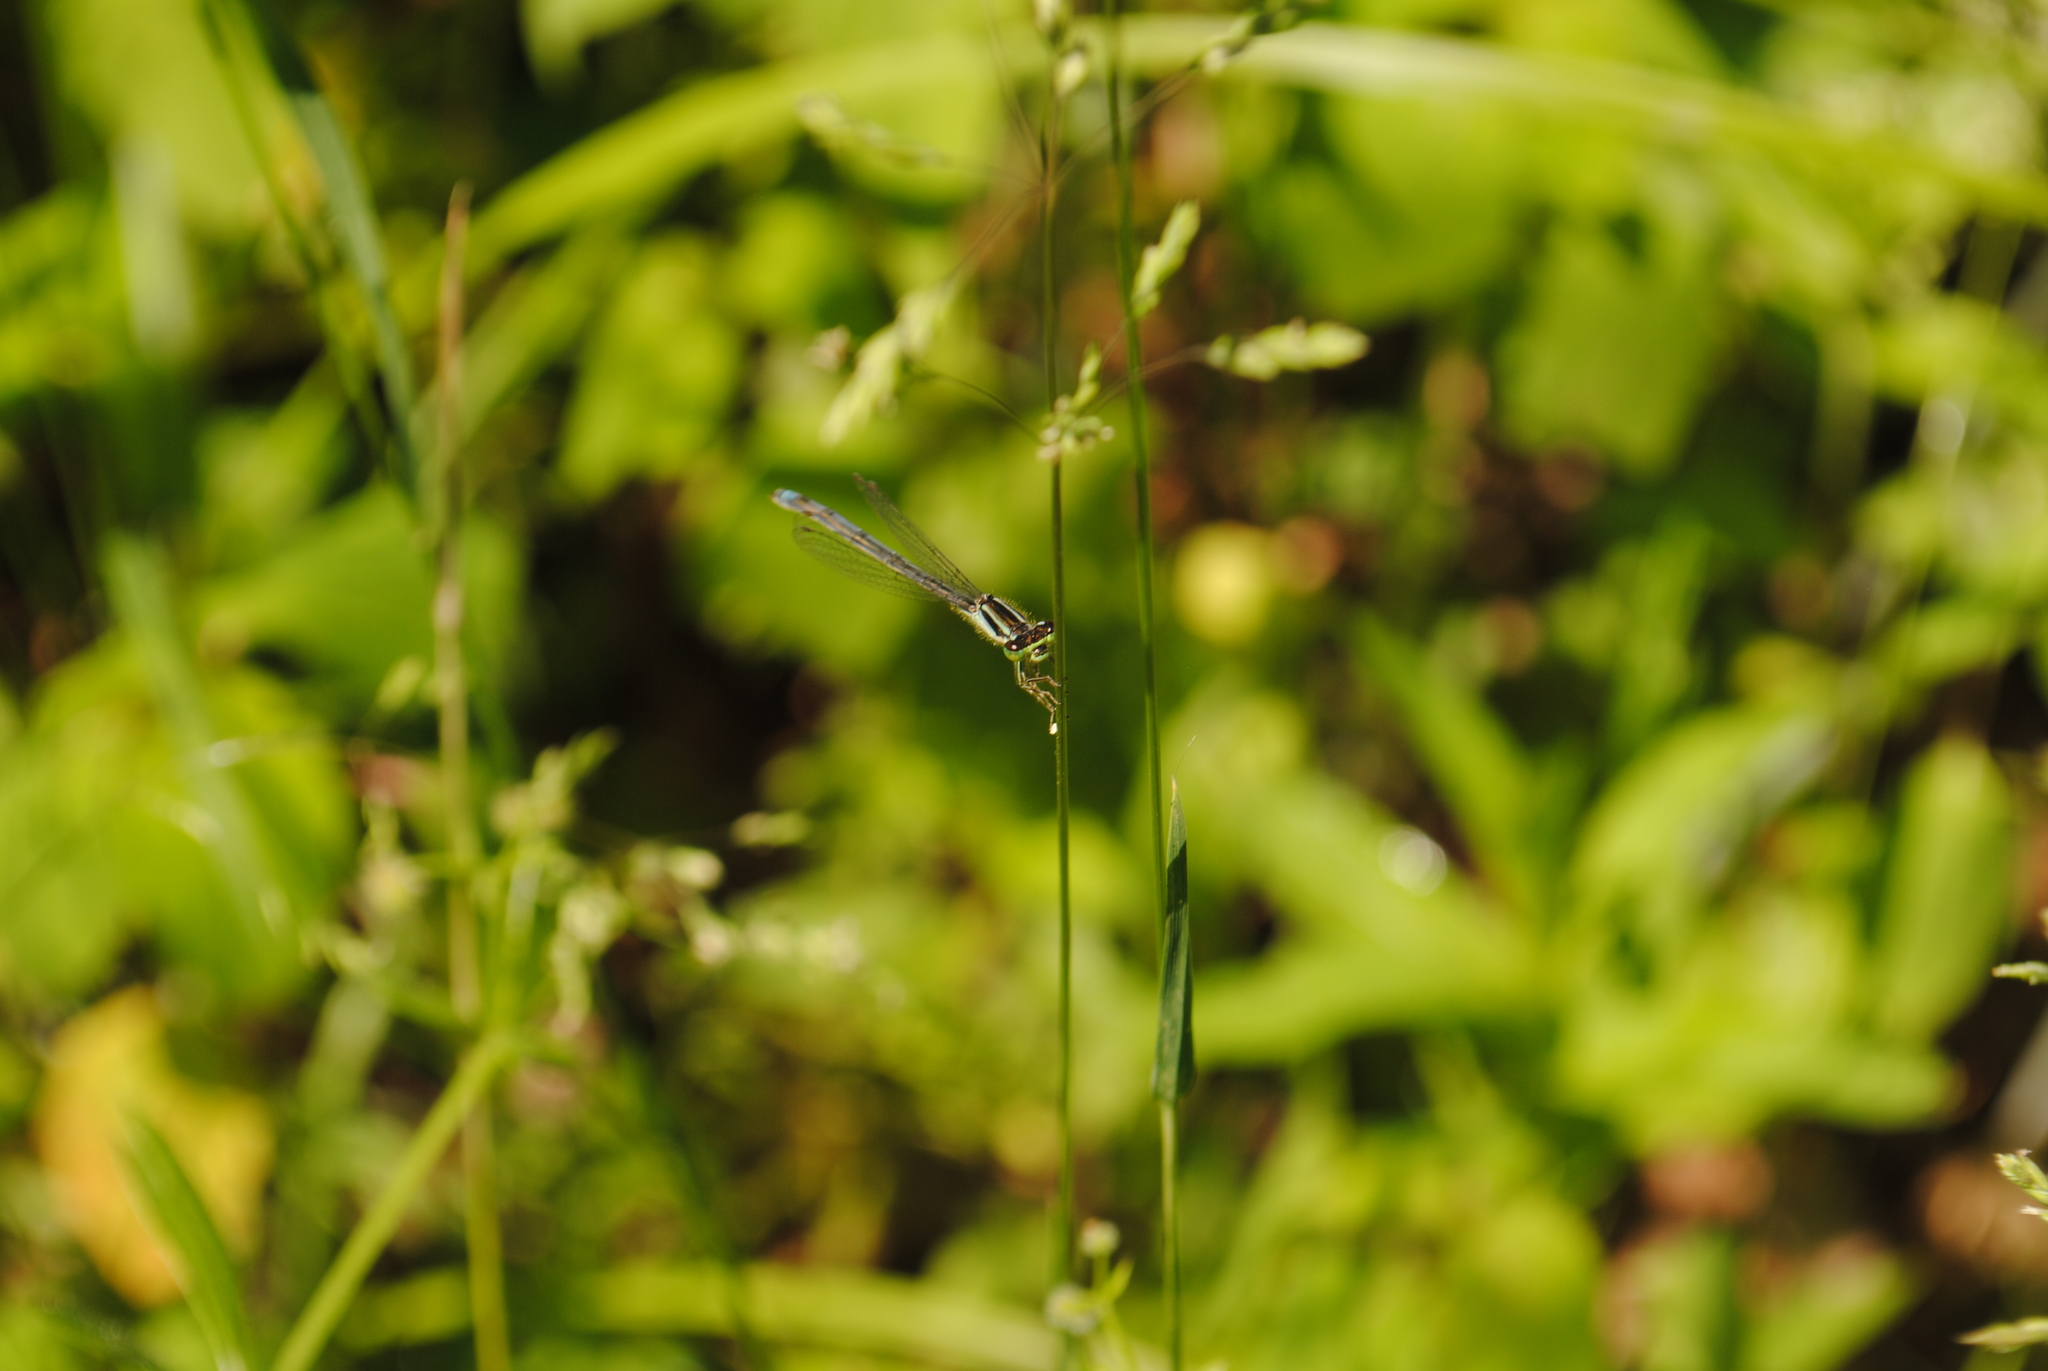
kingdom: Animalia
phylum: Arthropoda
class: Insecta
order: Odonata
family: Coenagrionidae
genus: Ischnura
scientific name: Ischnura verticalis
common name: Eastern forktail
